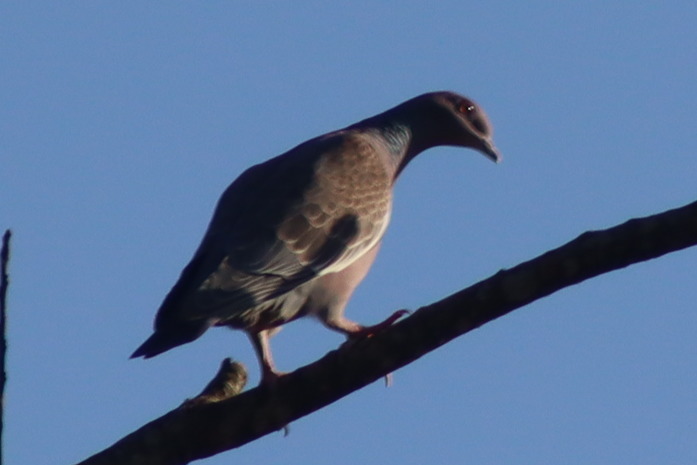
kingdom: Animalia
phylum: Chordata
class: Aves
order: Columbiformes
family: Columbidae
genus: Patagioenas
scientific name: Patagioenas picazuro
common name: Picazuro pigeon
